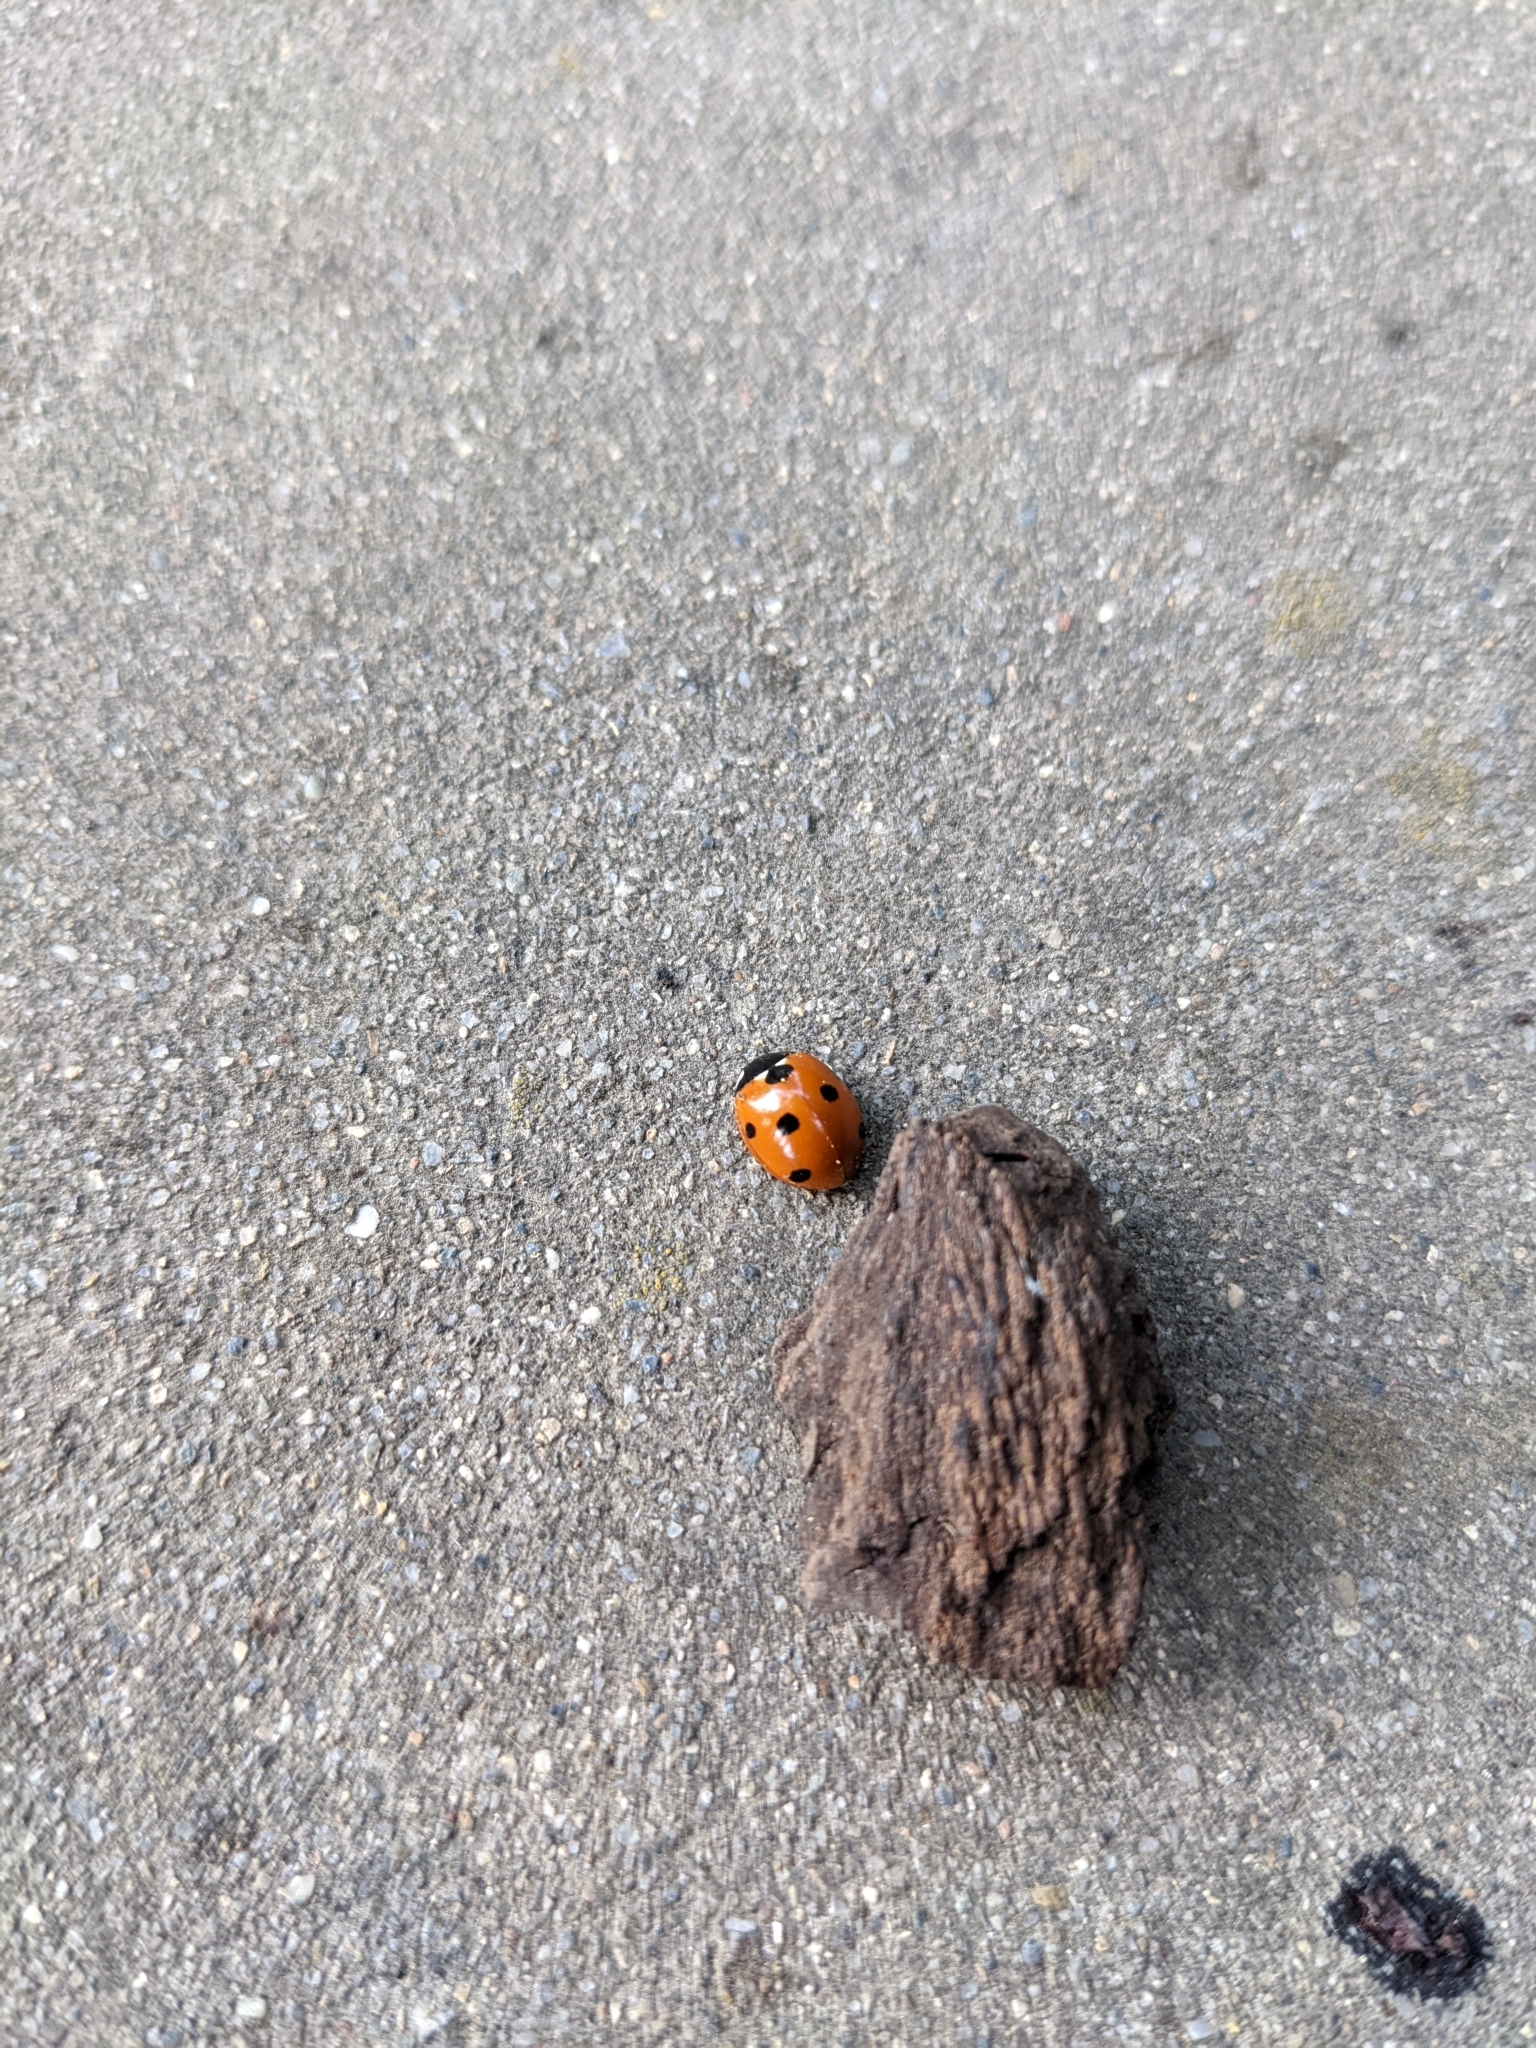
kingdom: Animalia
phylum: Arthropoda
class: Insecta
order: Coleoptera
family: Coccinellidae
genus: Coccinella
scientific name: Coccinella septempunctata
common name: Sevenspotted lady beetle
